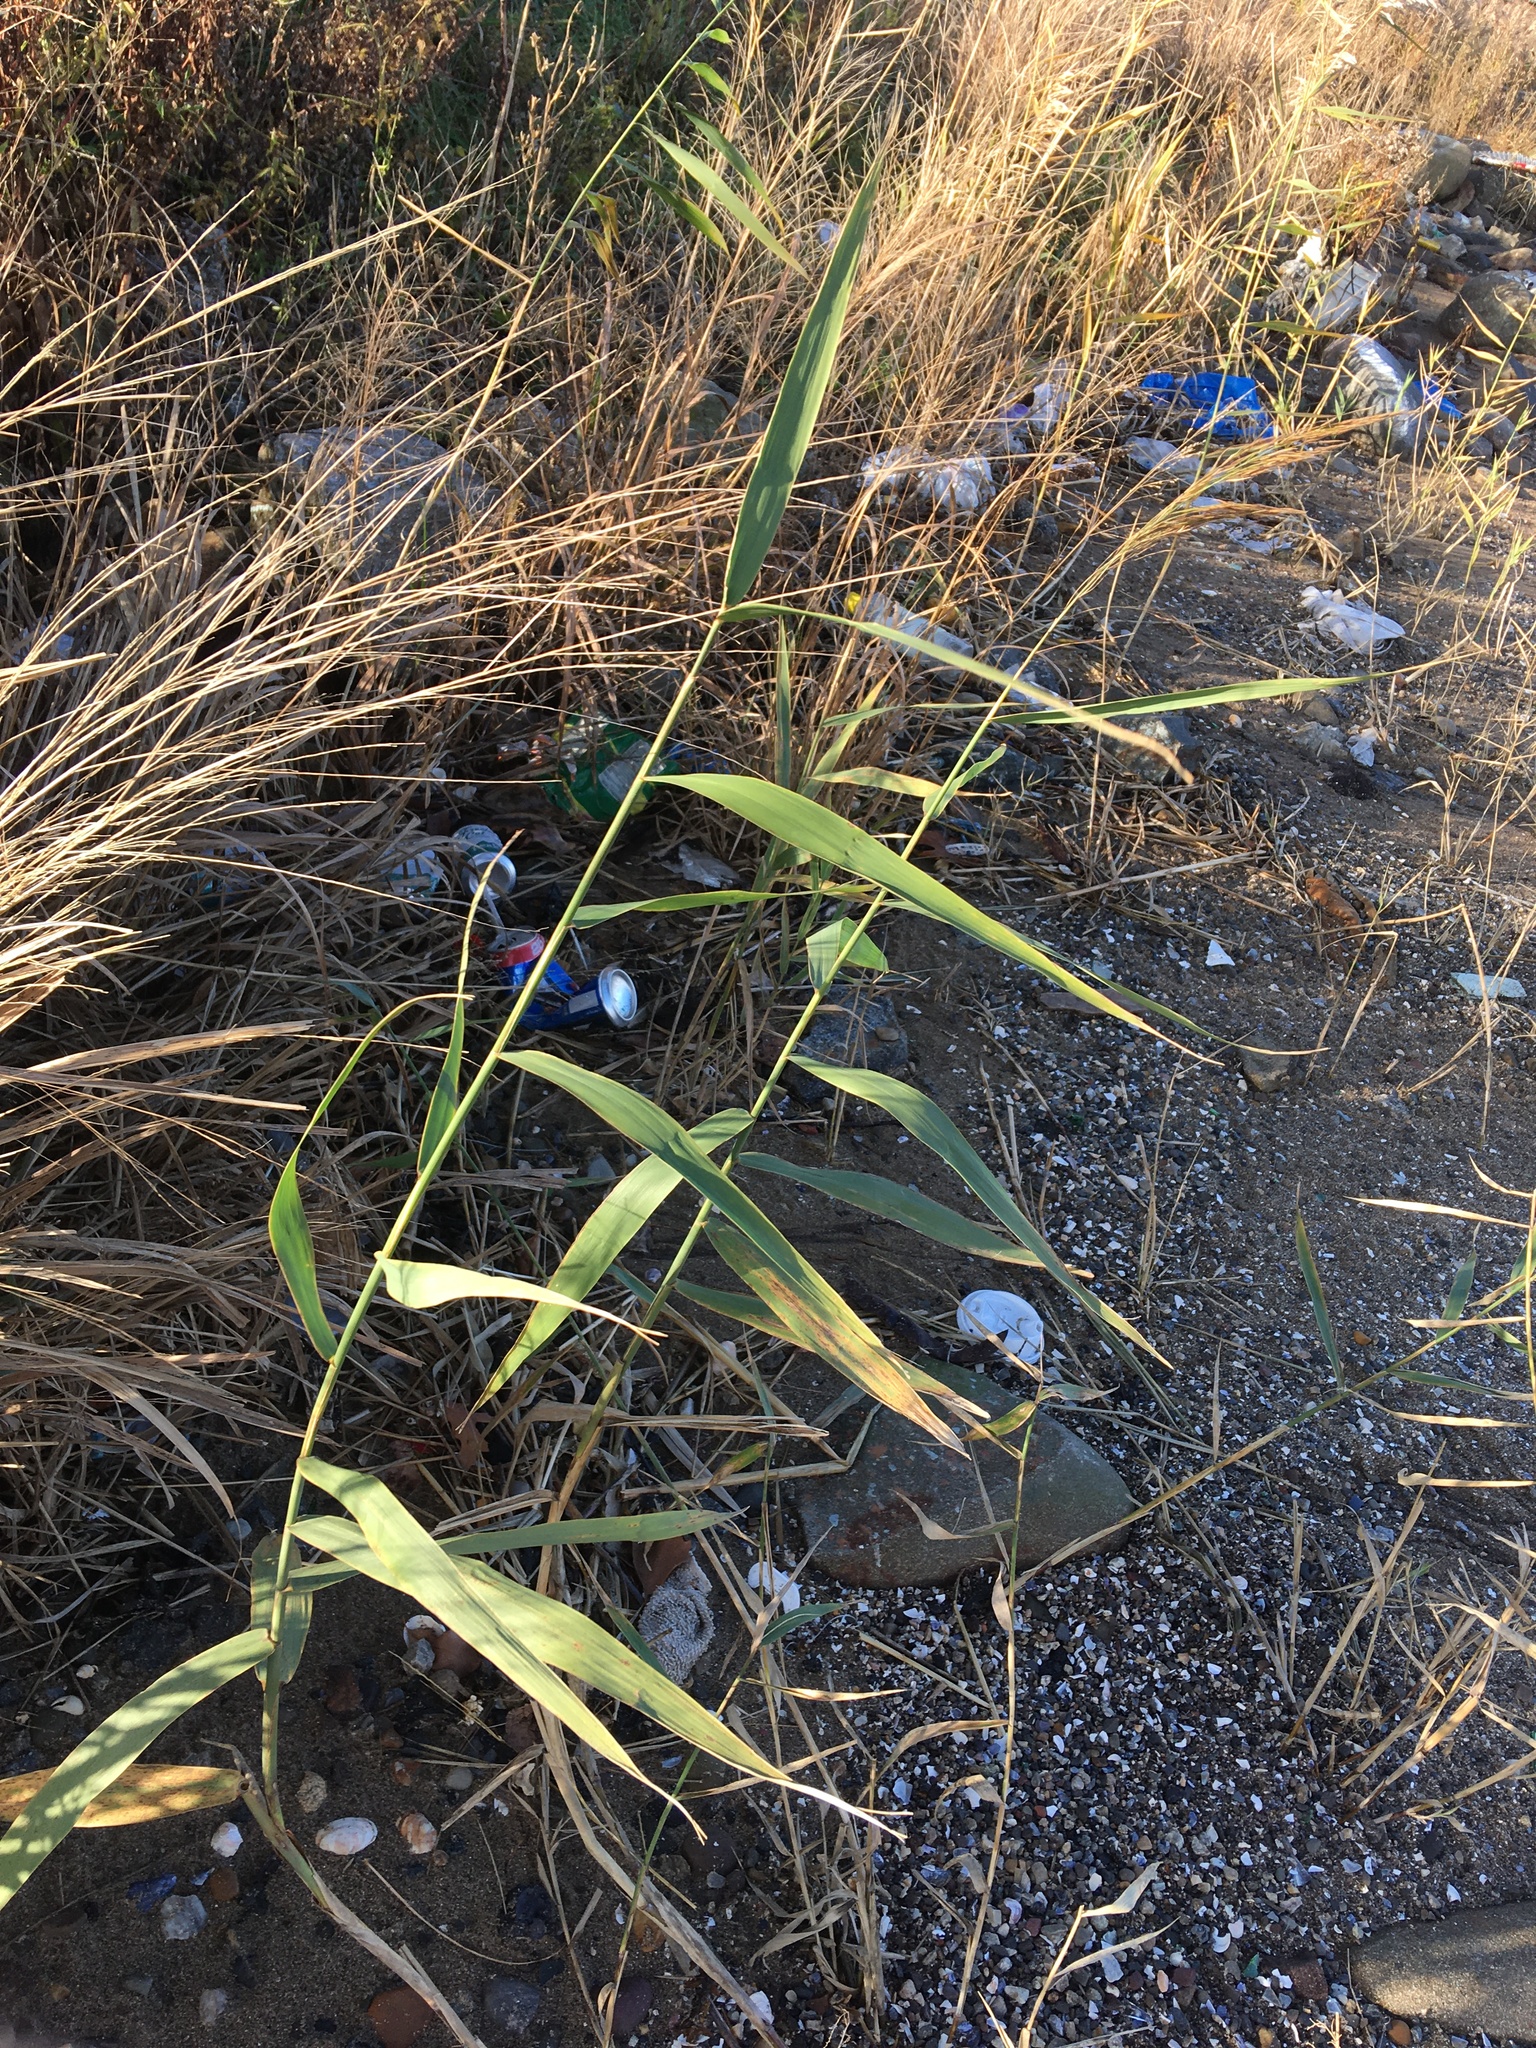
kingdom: Plantae
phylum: Tracheophyta
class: Liliopsida
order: Poales
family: Poaceae
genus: Phragmites
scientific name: Phragmites australis
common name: Common reed
